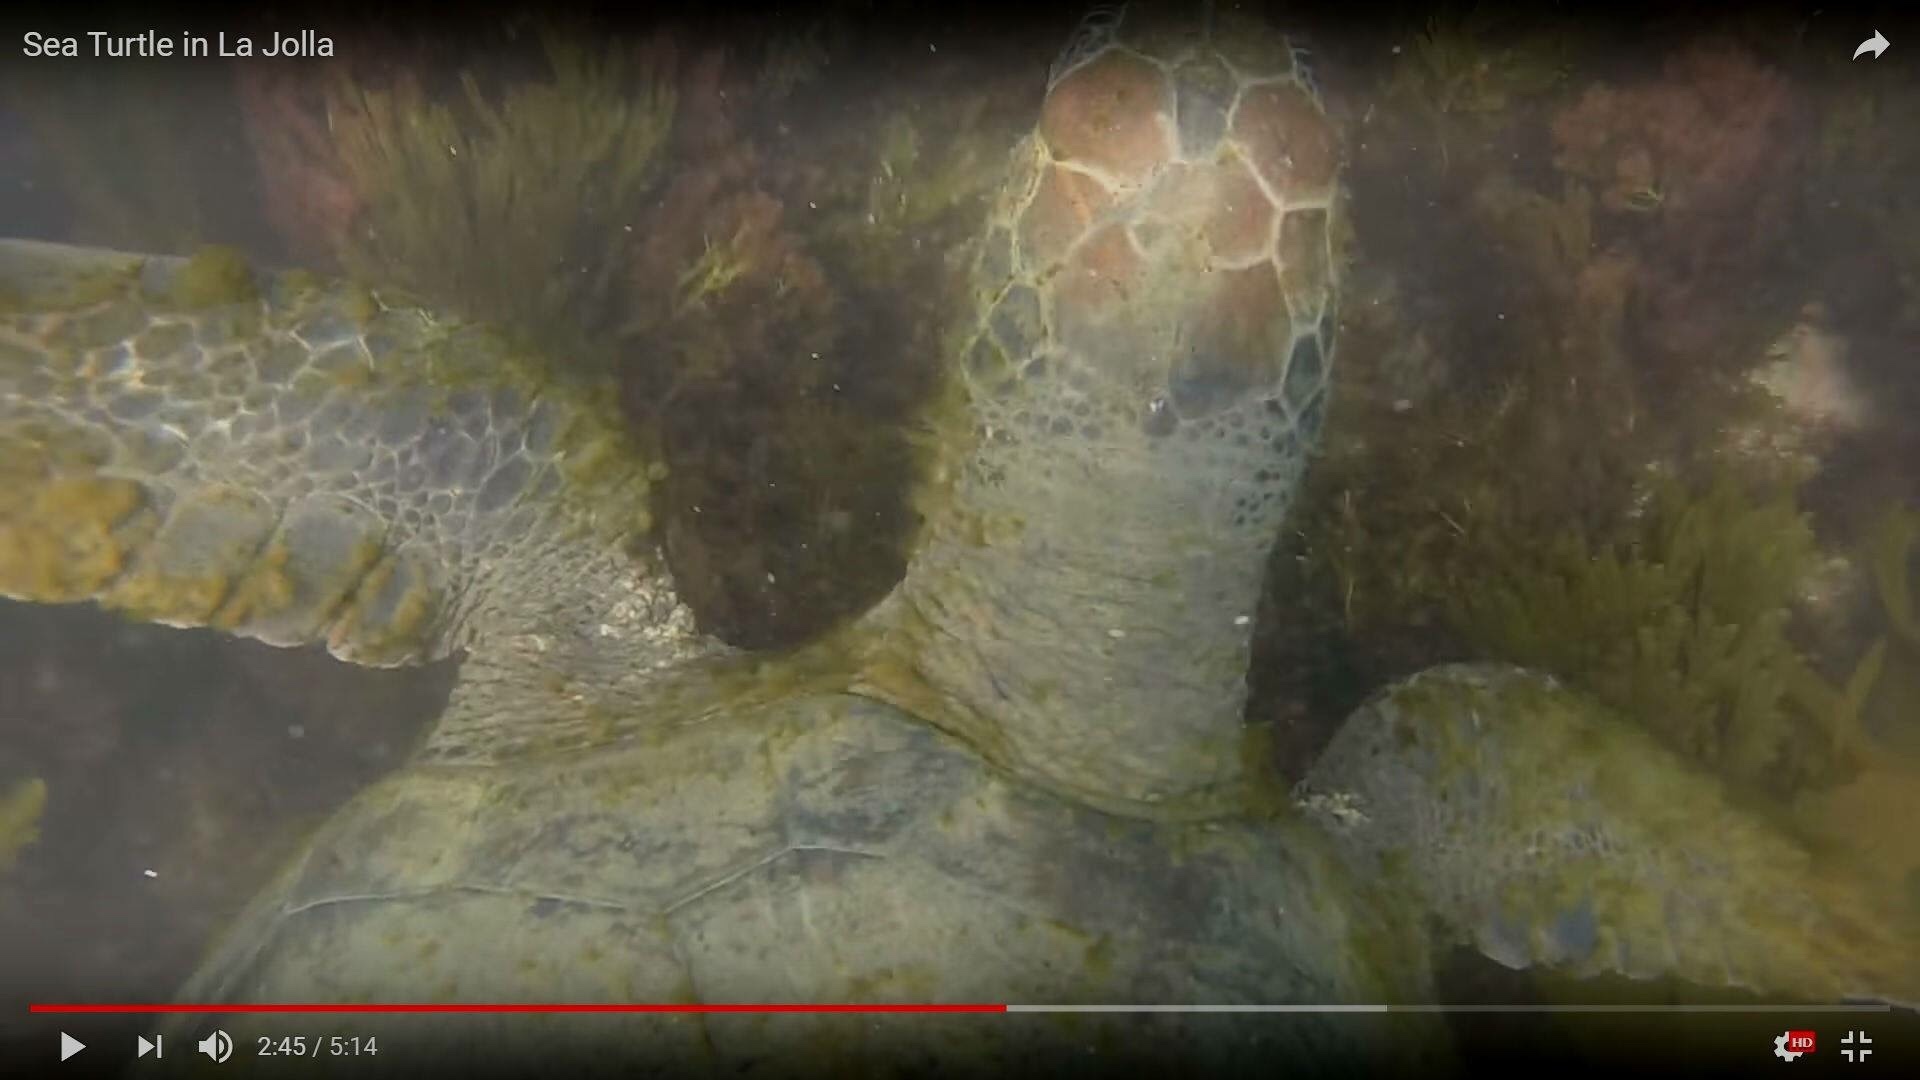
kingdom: Animalia
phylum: Chordata
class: Testudines
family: Cheloniidae
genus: Chelonia
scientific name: Chelonia mydas
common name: Green turtle
